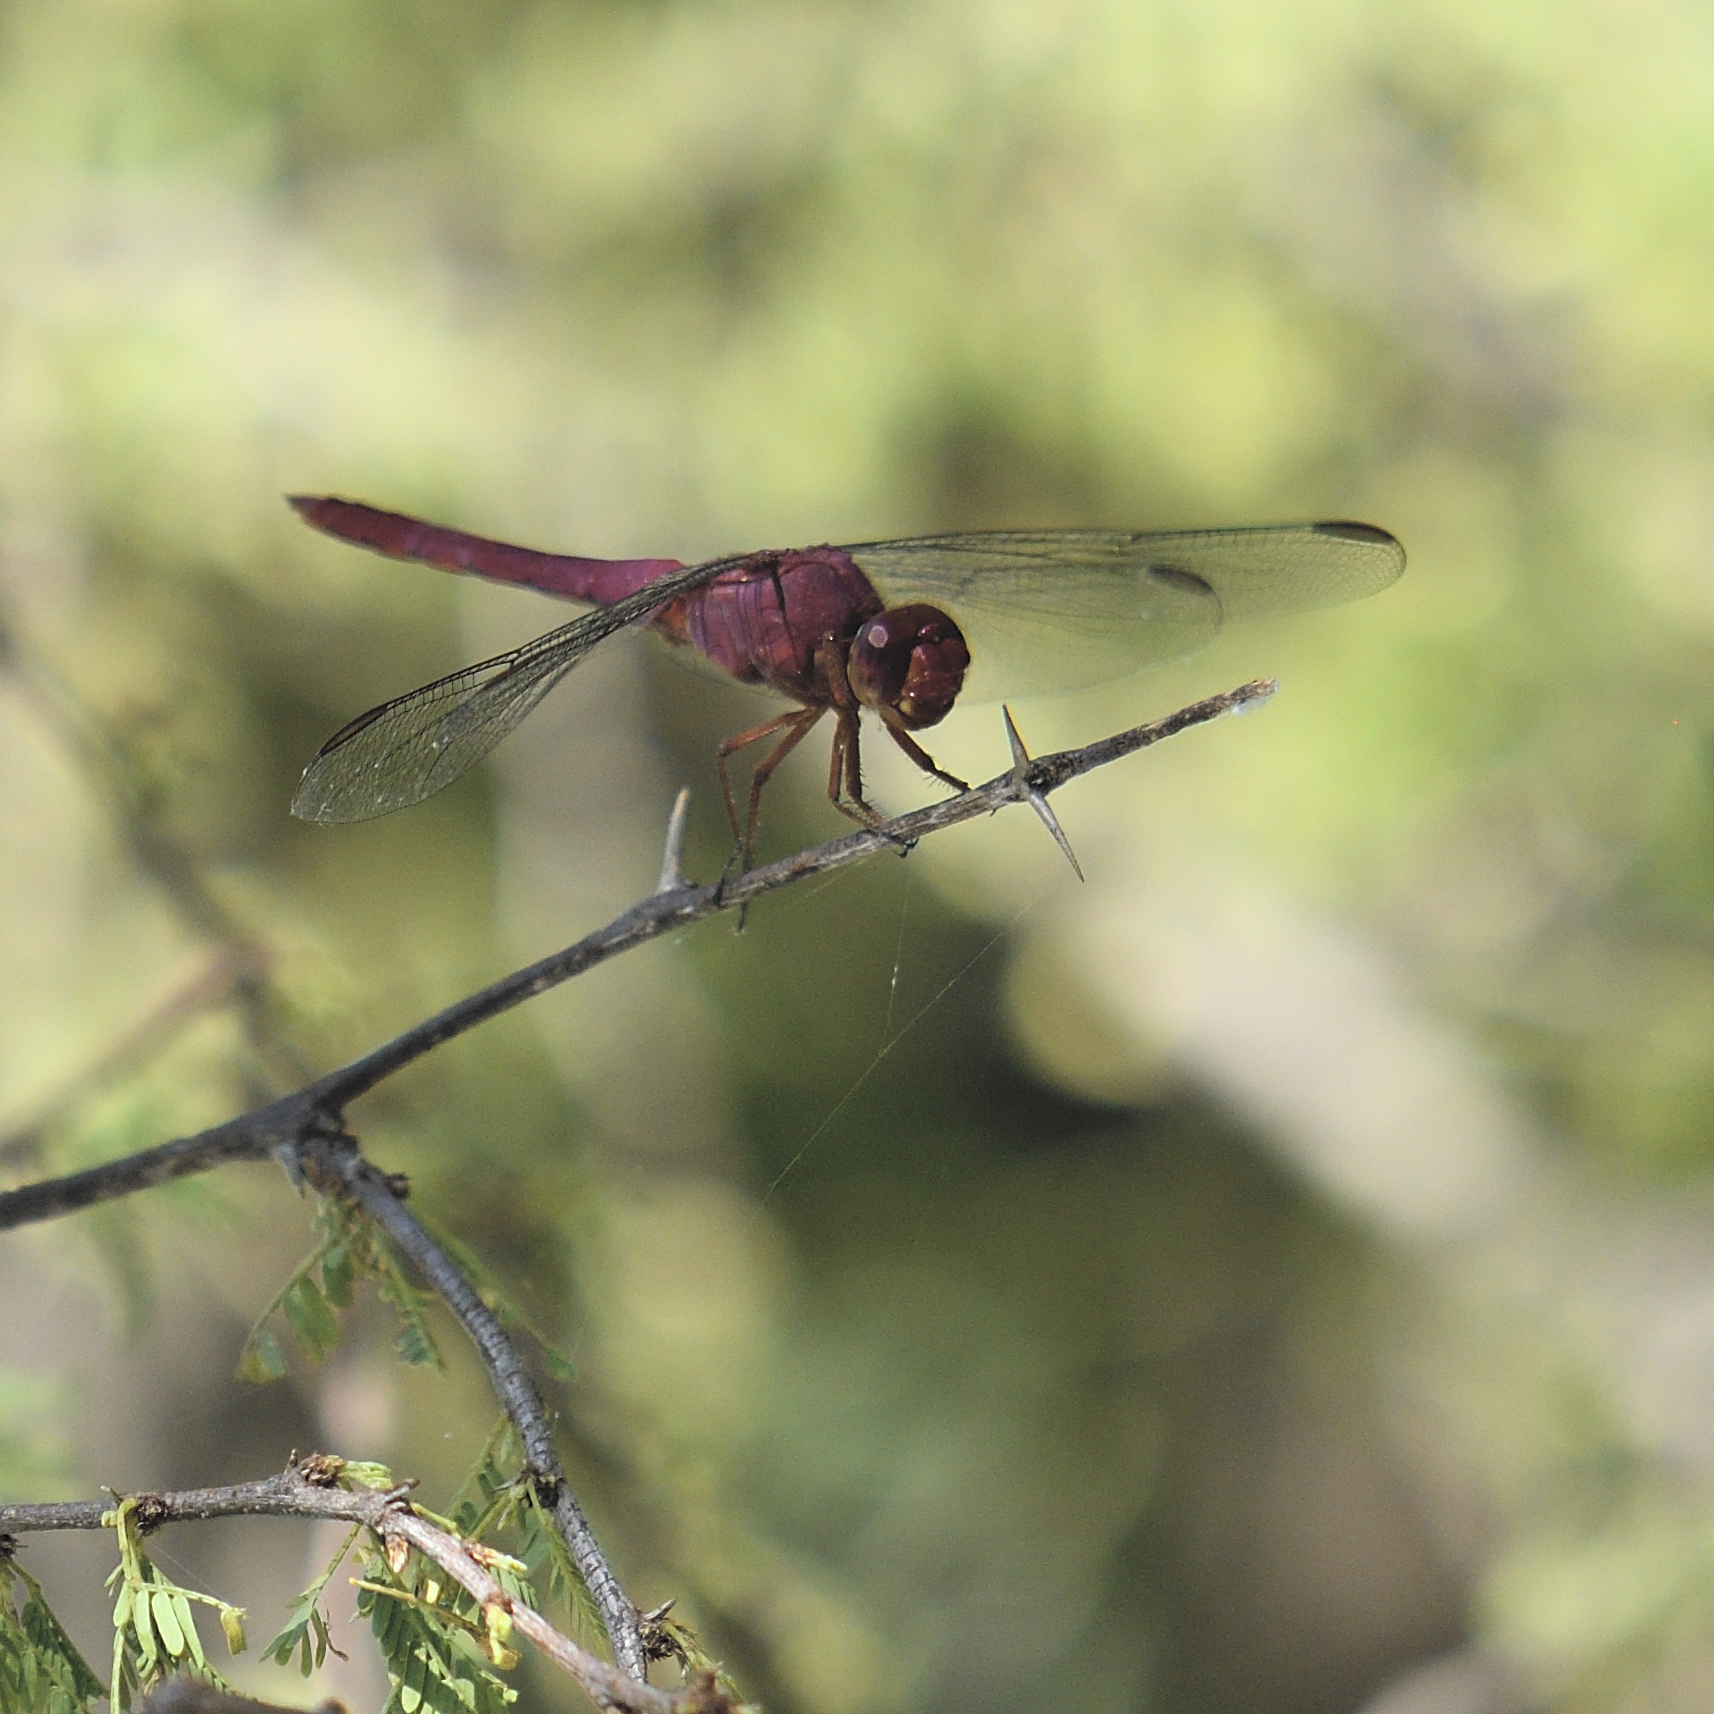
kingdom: Animalia
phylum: Arthropoda
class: Insecta
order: Odonata
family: Libellulidae
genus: Orthemis
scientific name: Orthemis ferruginea
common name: Roseate skimmer
